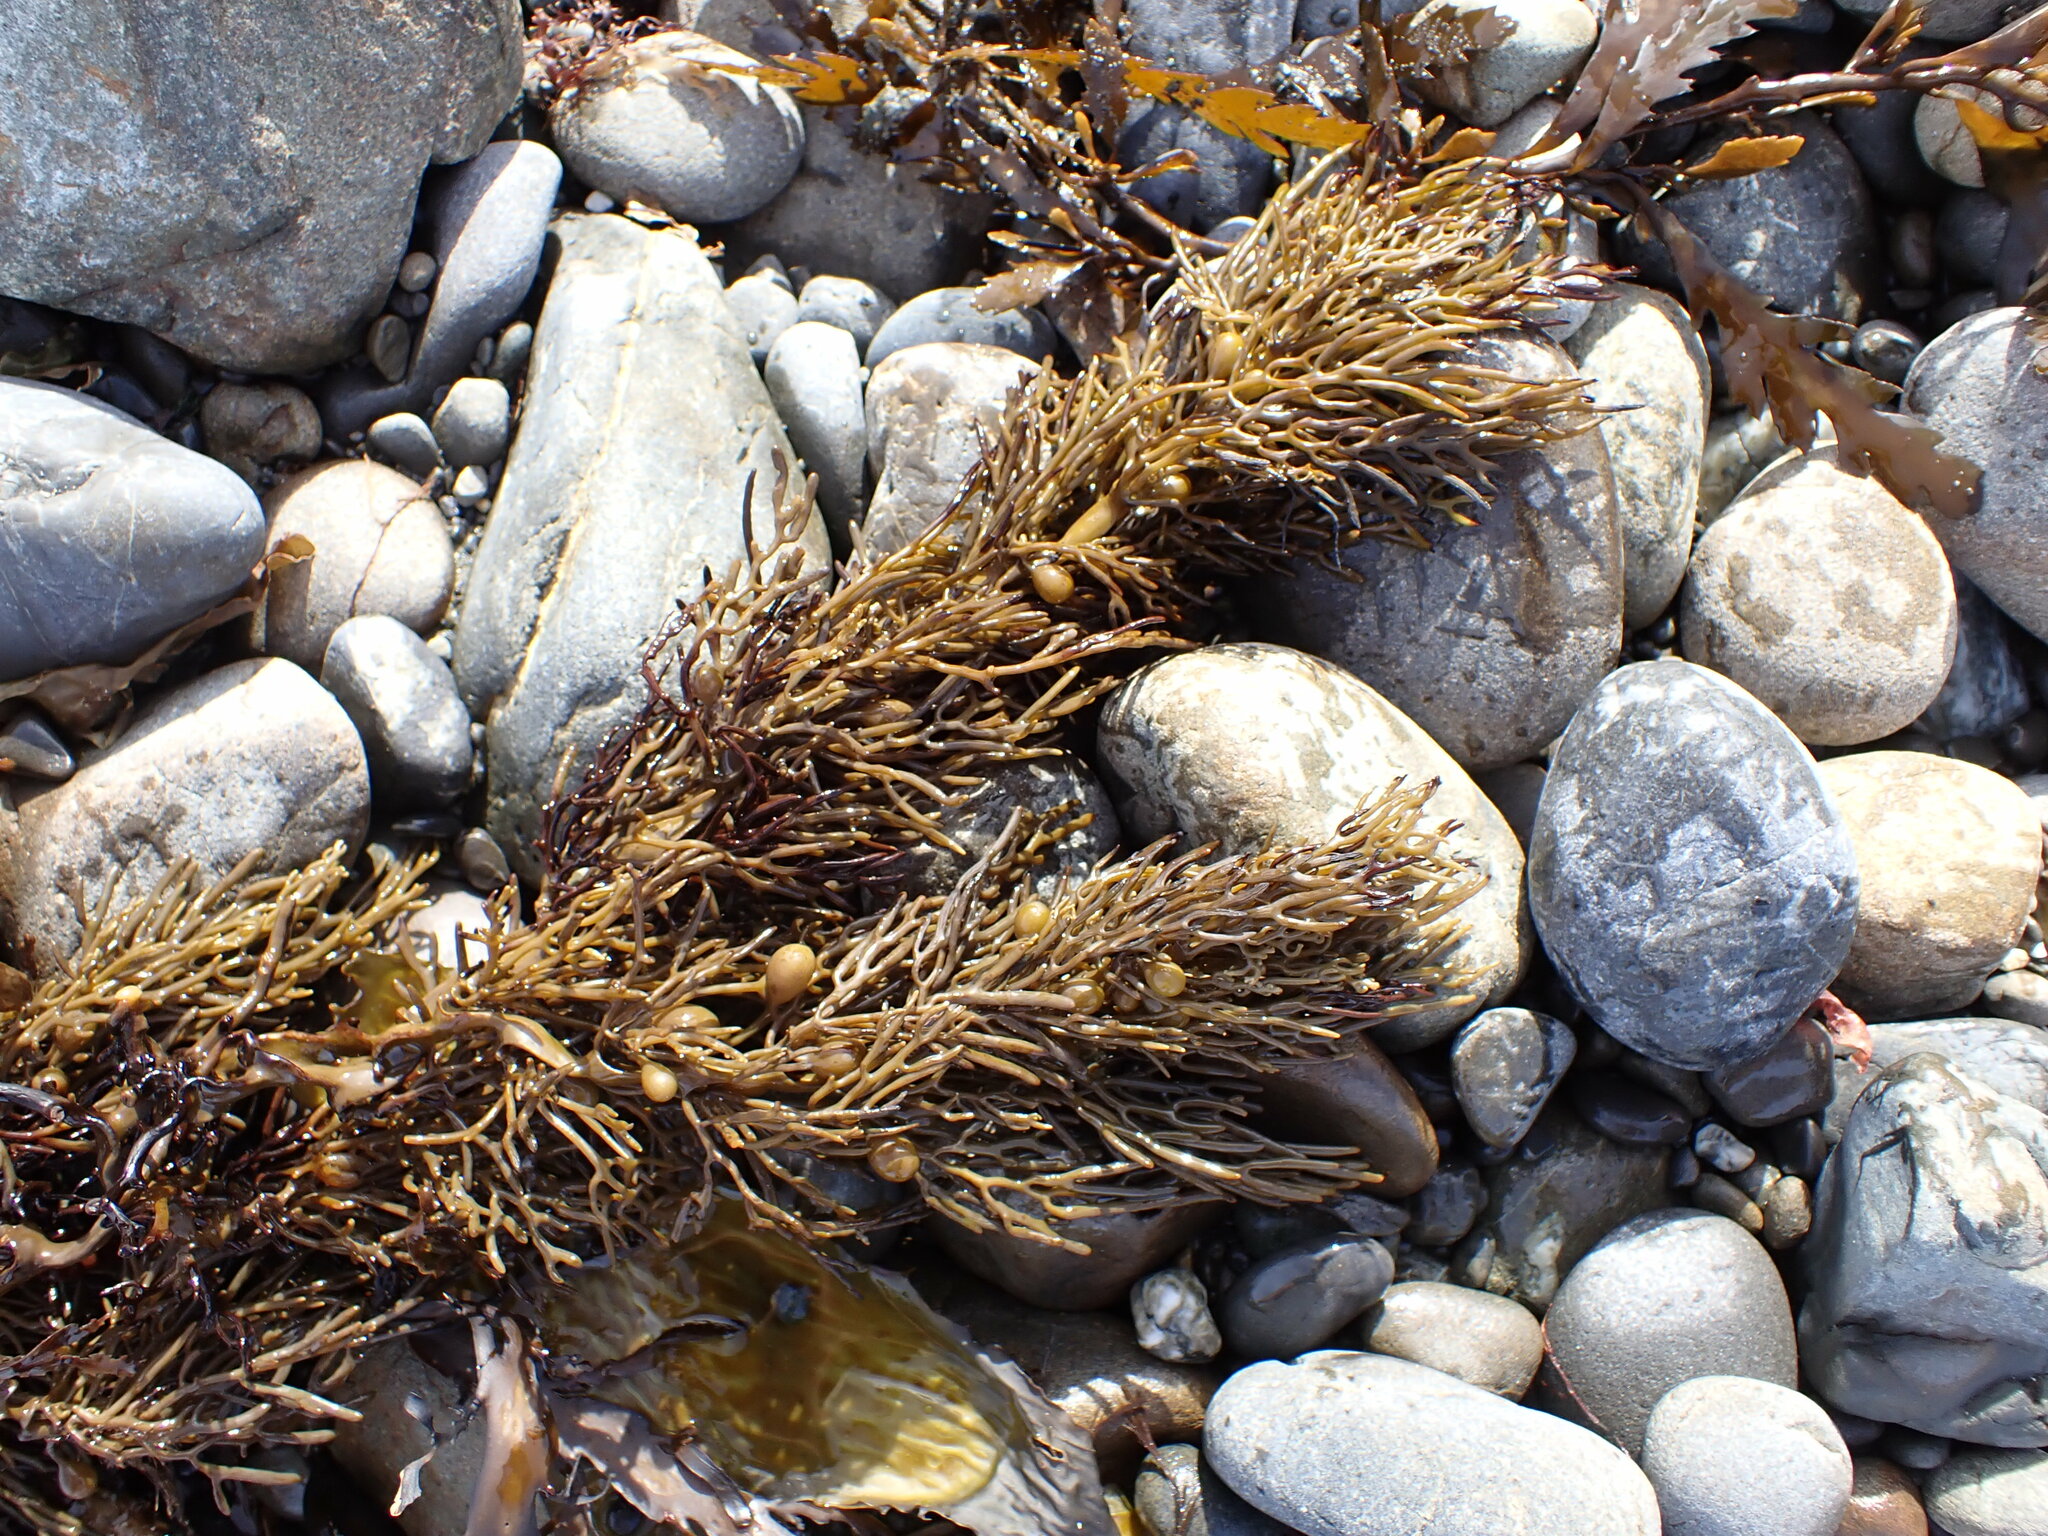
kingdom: Chromista
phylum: Ochrophyta
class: Phaeophyceae
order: Fucales
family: Sargassaceae
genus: Cystophora
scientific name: Cystophora retroflexa
